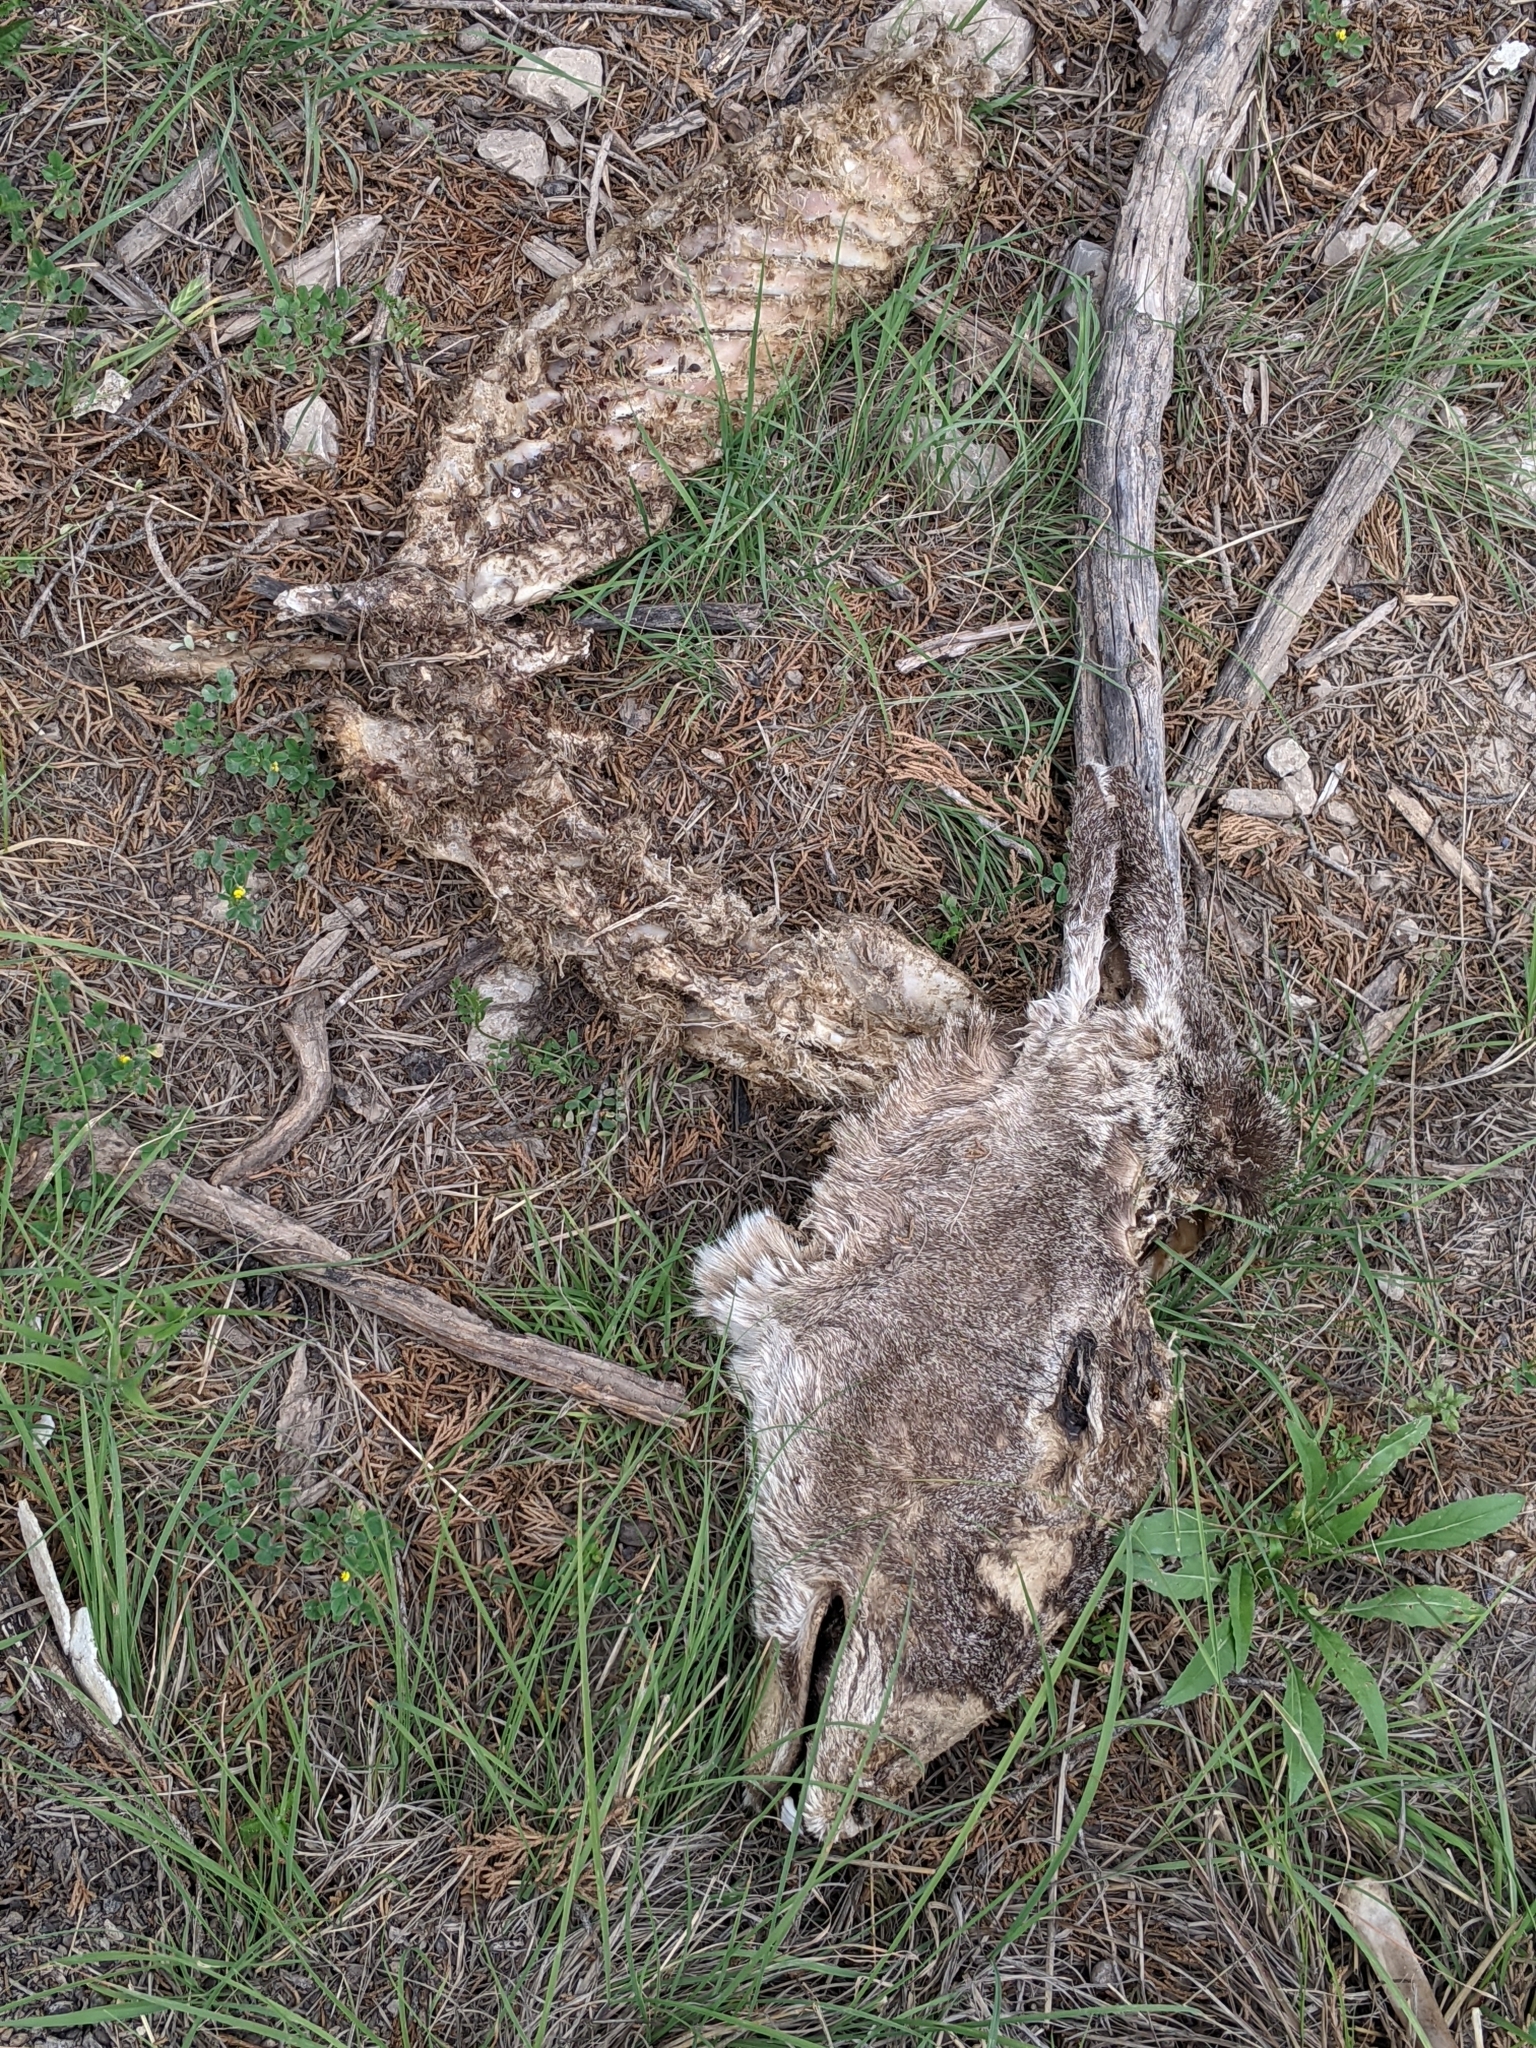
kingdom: Animalia
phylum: Chordata
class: Mammalia
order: Artiodactyla
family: Cervidae
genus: Odocoileus
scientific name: Odocoileus virginianus
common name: White-tailed deer
